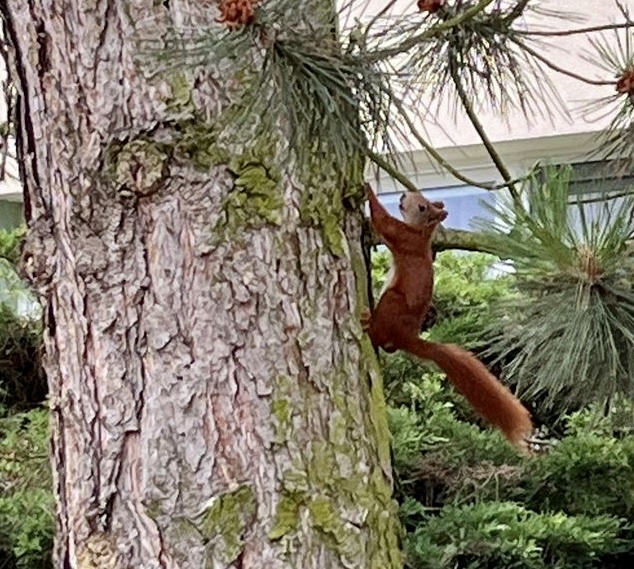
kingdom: Animalia
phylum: Chordata
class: Mammalia
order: Rodentia
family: Sciuridae
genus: Sciurus
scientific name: Sciurus vulgaris
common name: Eurasian red squirrel
